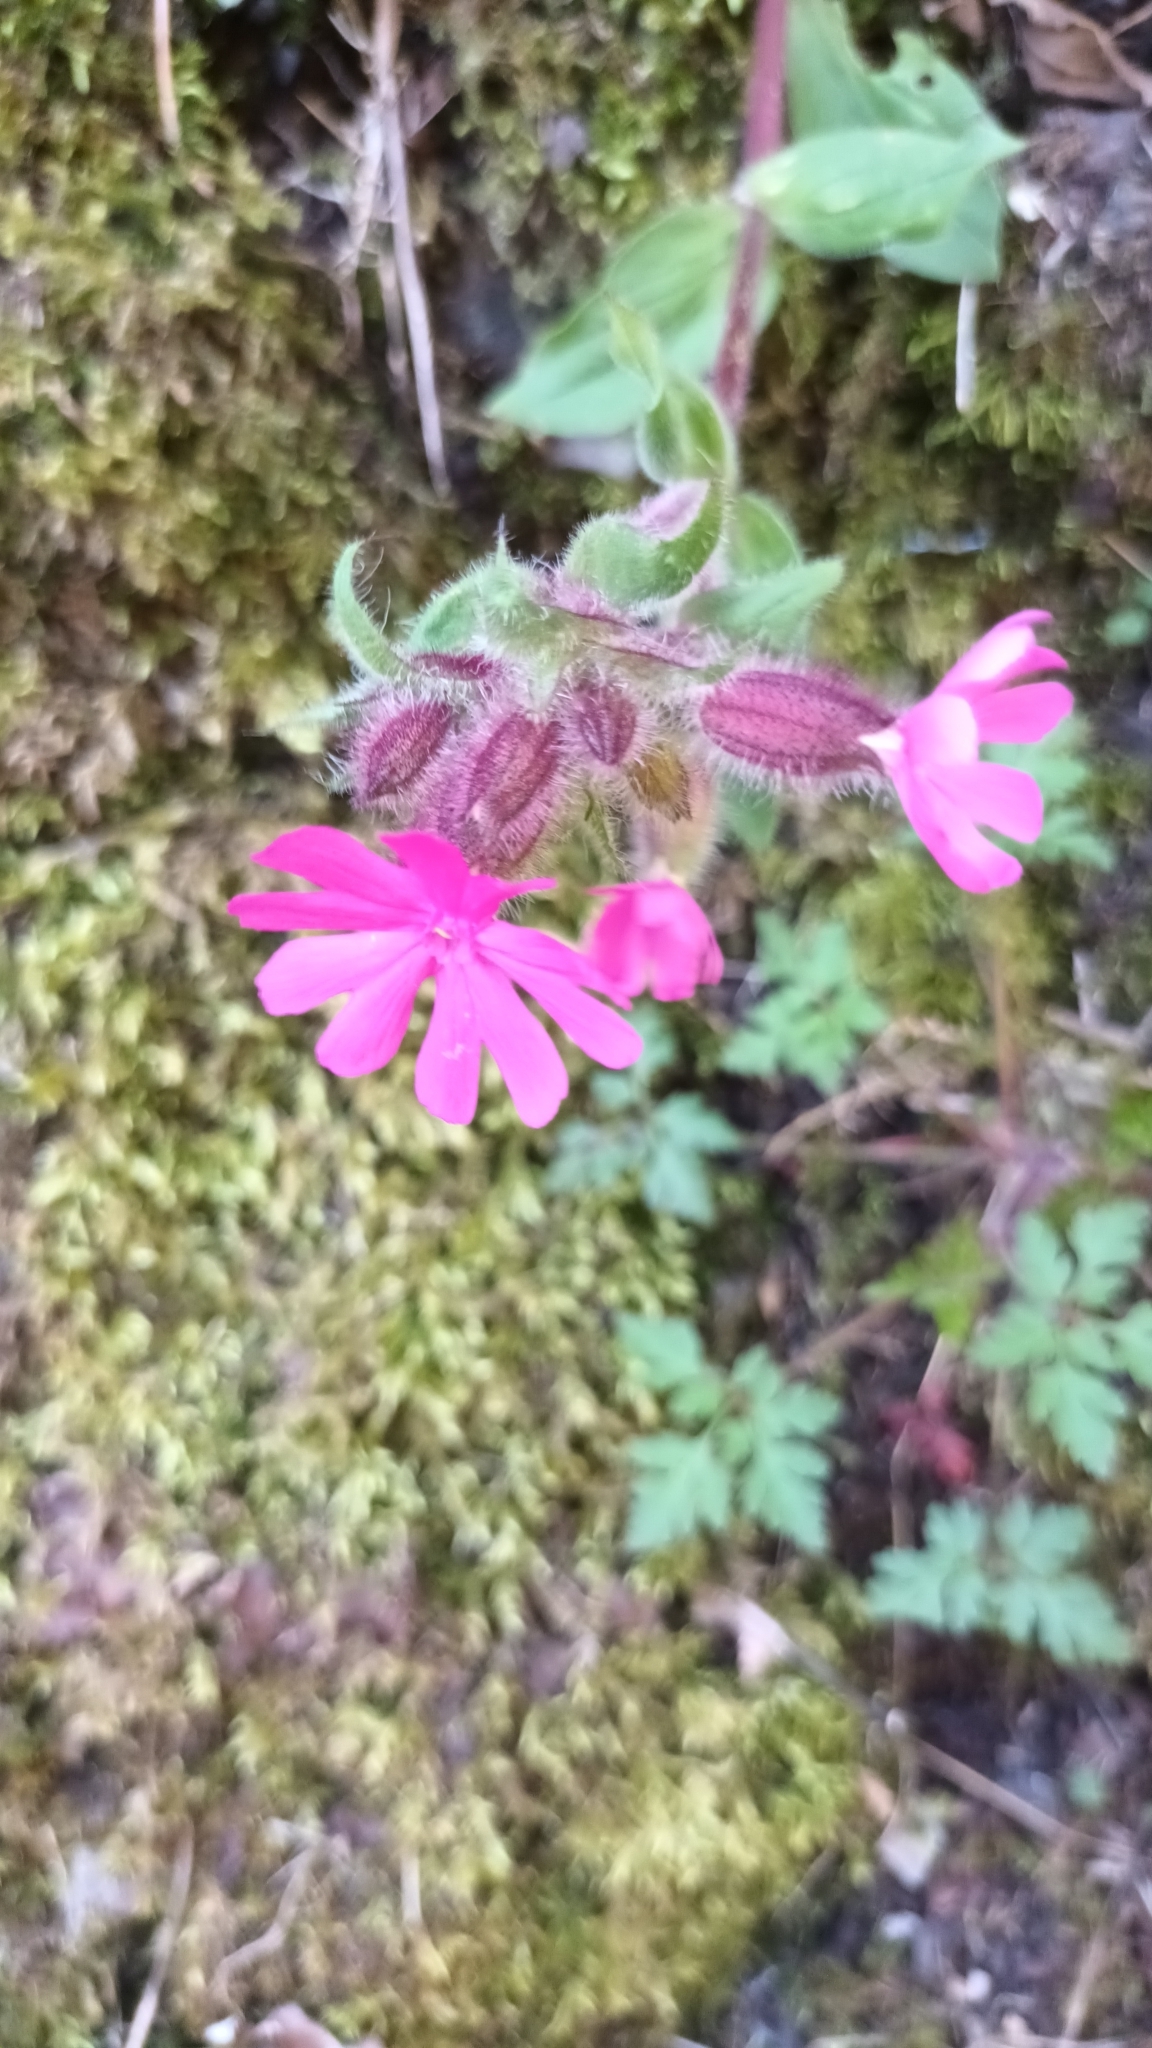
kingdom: Plantae
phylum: Tracheophyta
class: Magnoliopsida
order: Caryophyllales
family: Caryophyllaceae
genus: Silene
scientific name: Silene dioica
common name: Red campion
